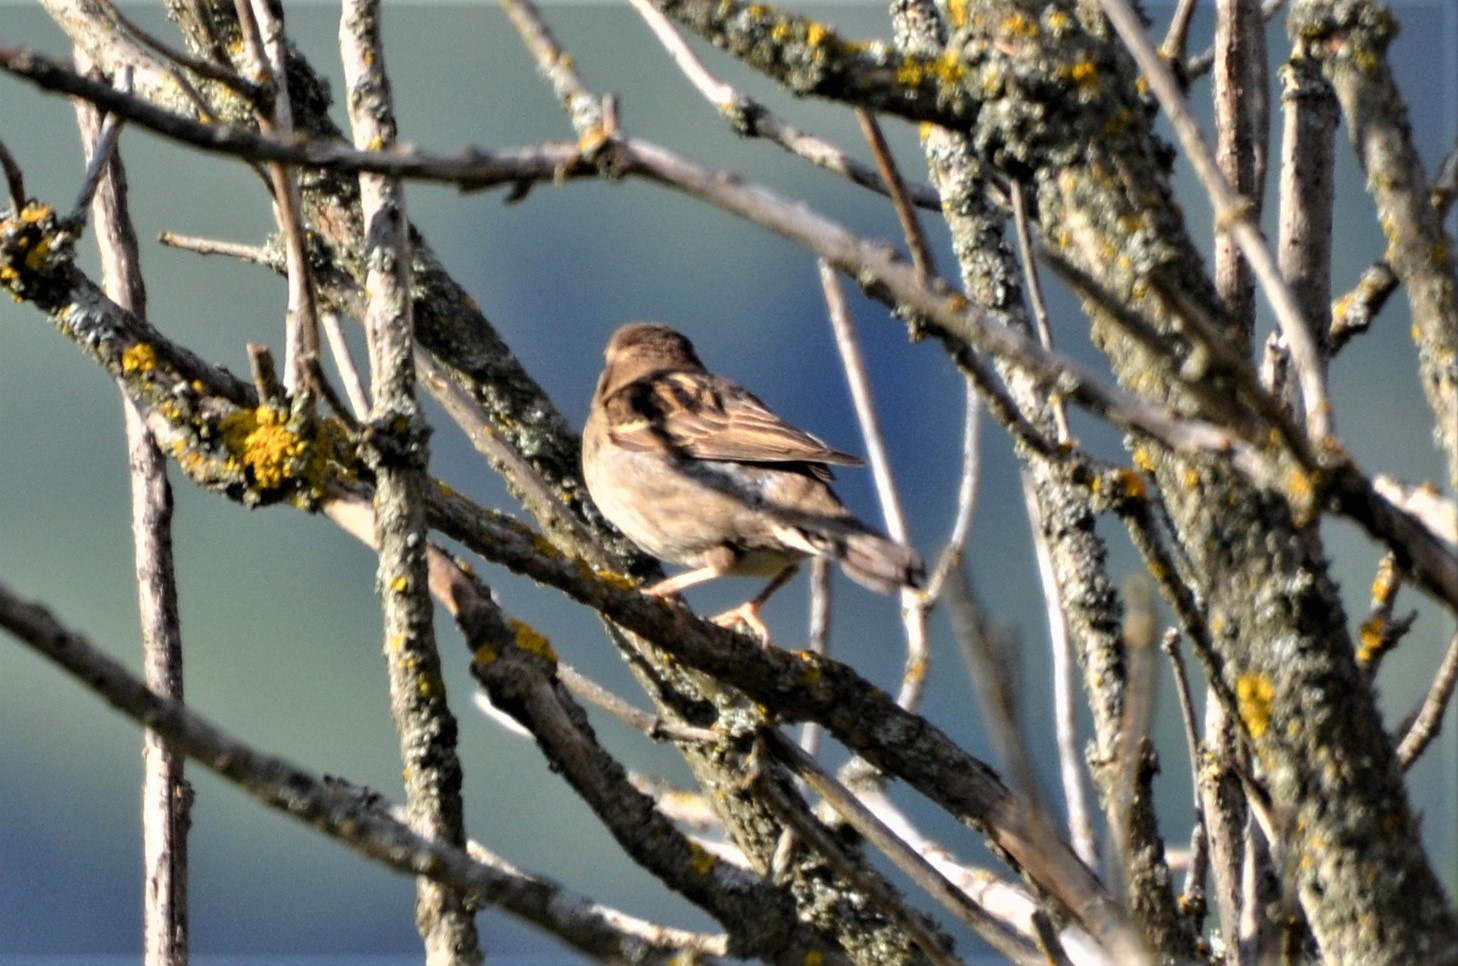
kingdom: Animalia
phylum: Chordata
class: Aves
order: Passeriformes
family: Passeridae
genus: Passer
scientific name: Passer domesticus
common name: House sparrow
